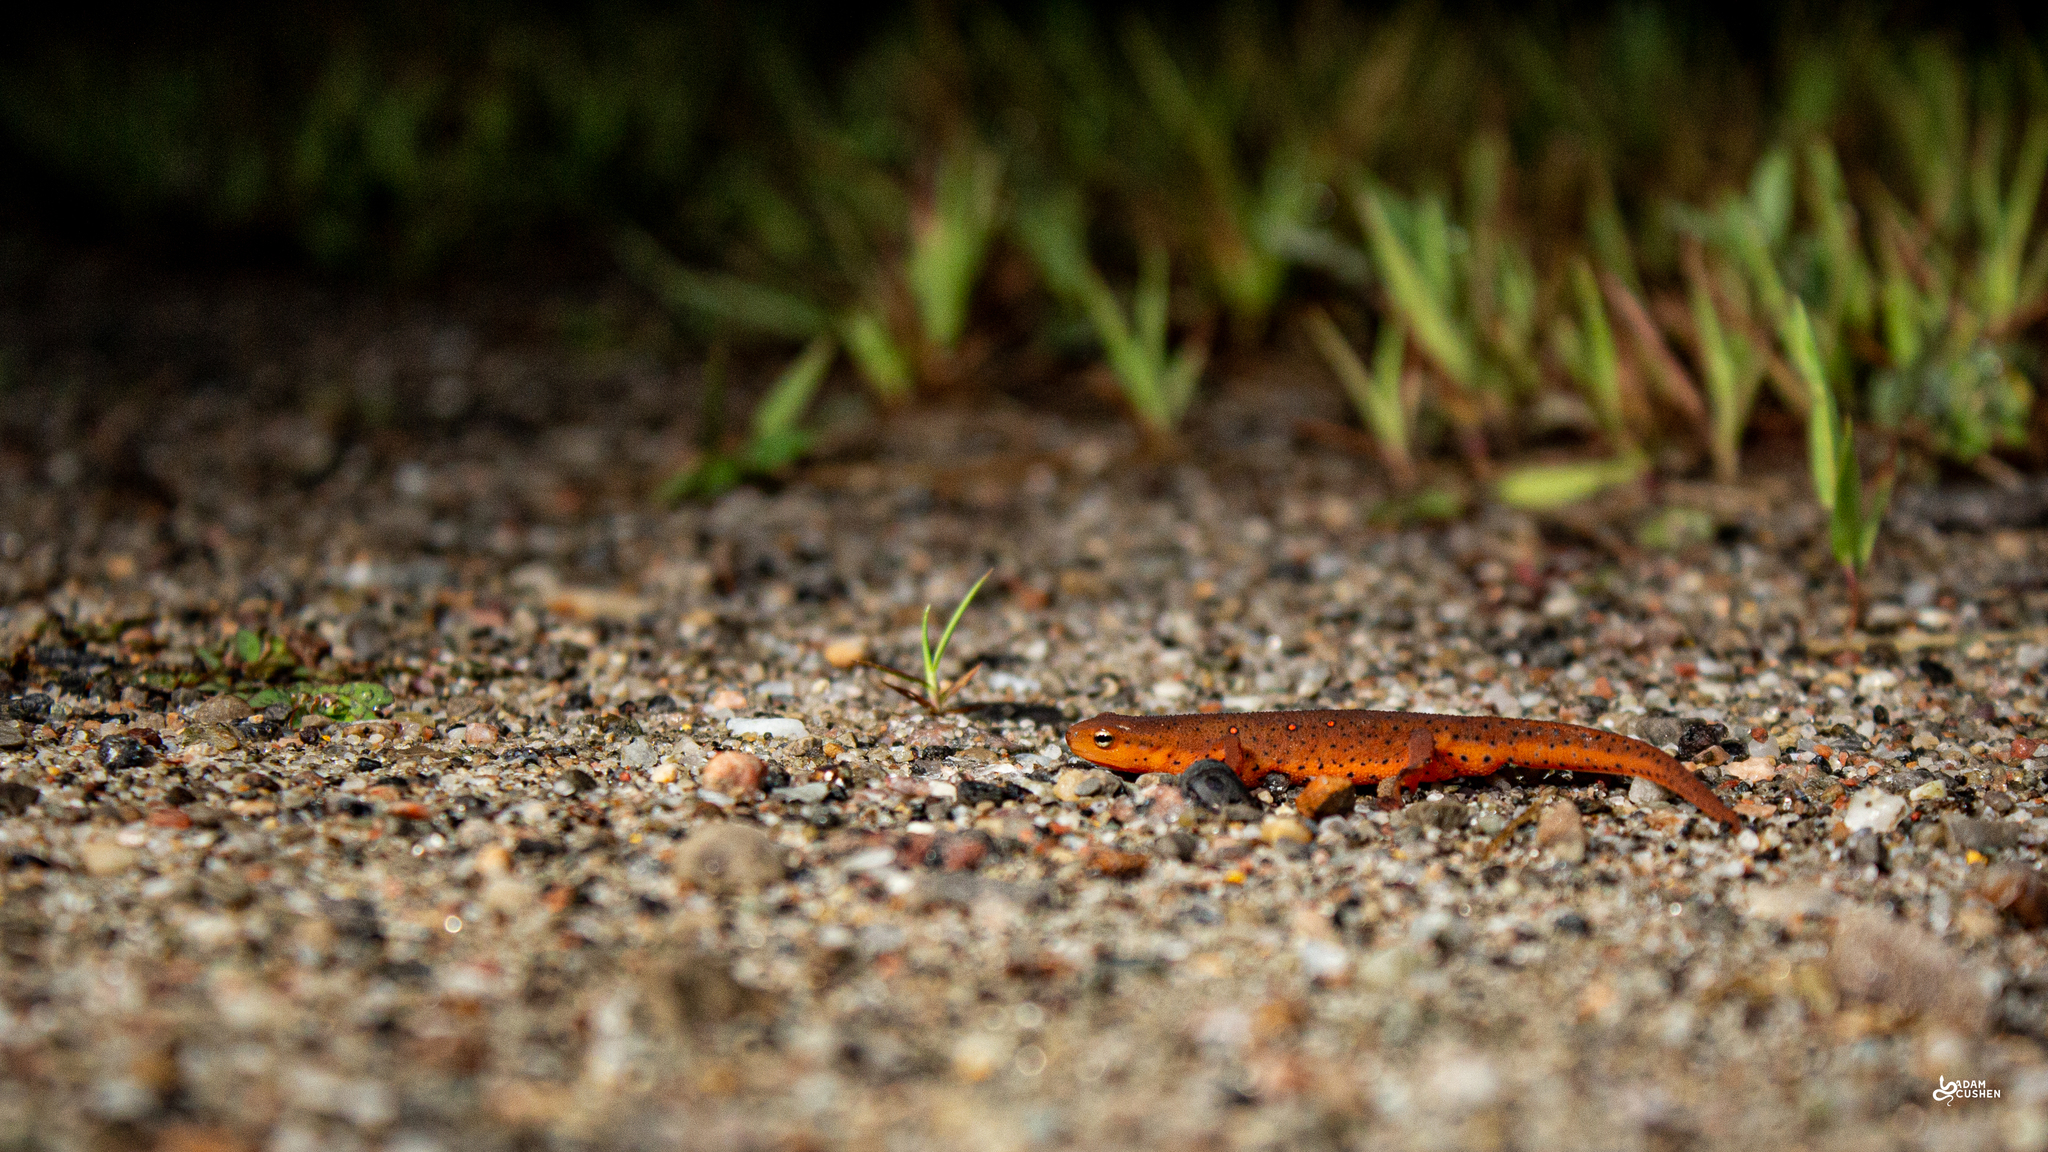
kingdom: Animalia
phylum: Chordata
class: Amphibia
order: Caudata
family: Salamandridae
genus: Notophthalmus
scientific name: Notophthalmus viridescens
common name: Eastern newt
